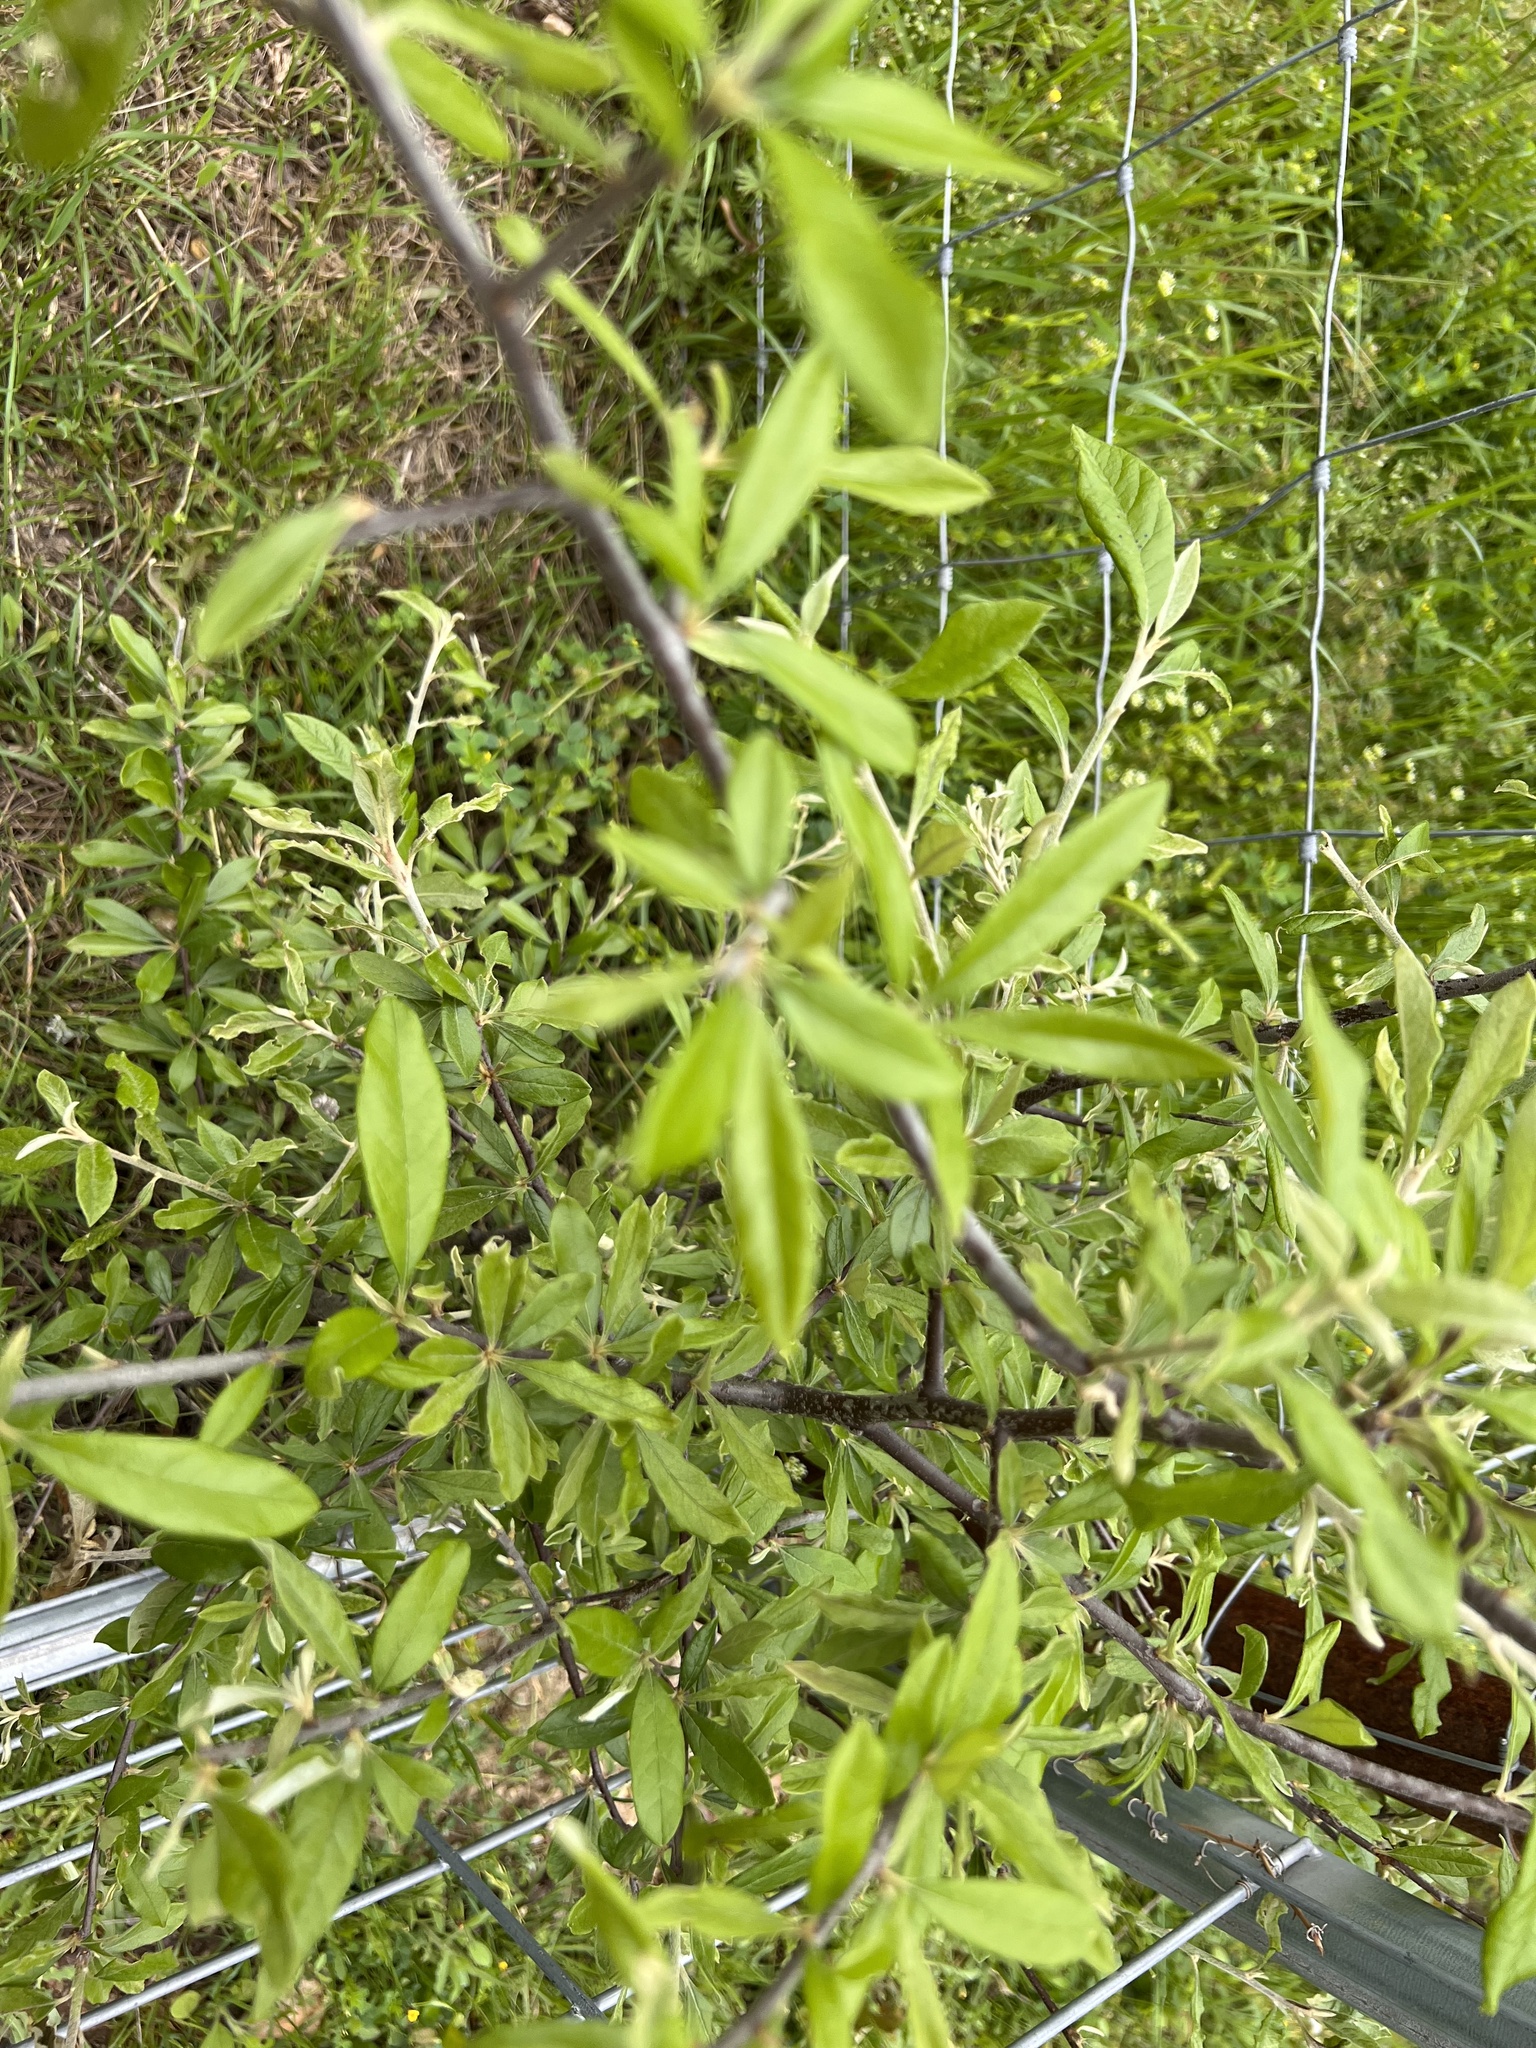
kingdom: Plantae
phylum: Tracheophyta
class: Magnoliopsida
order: Ericales
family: Sapotaceae
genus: Sideroxylon
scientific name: Sideroxylon lanuginosum
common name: Chittamwood
